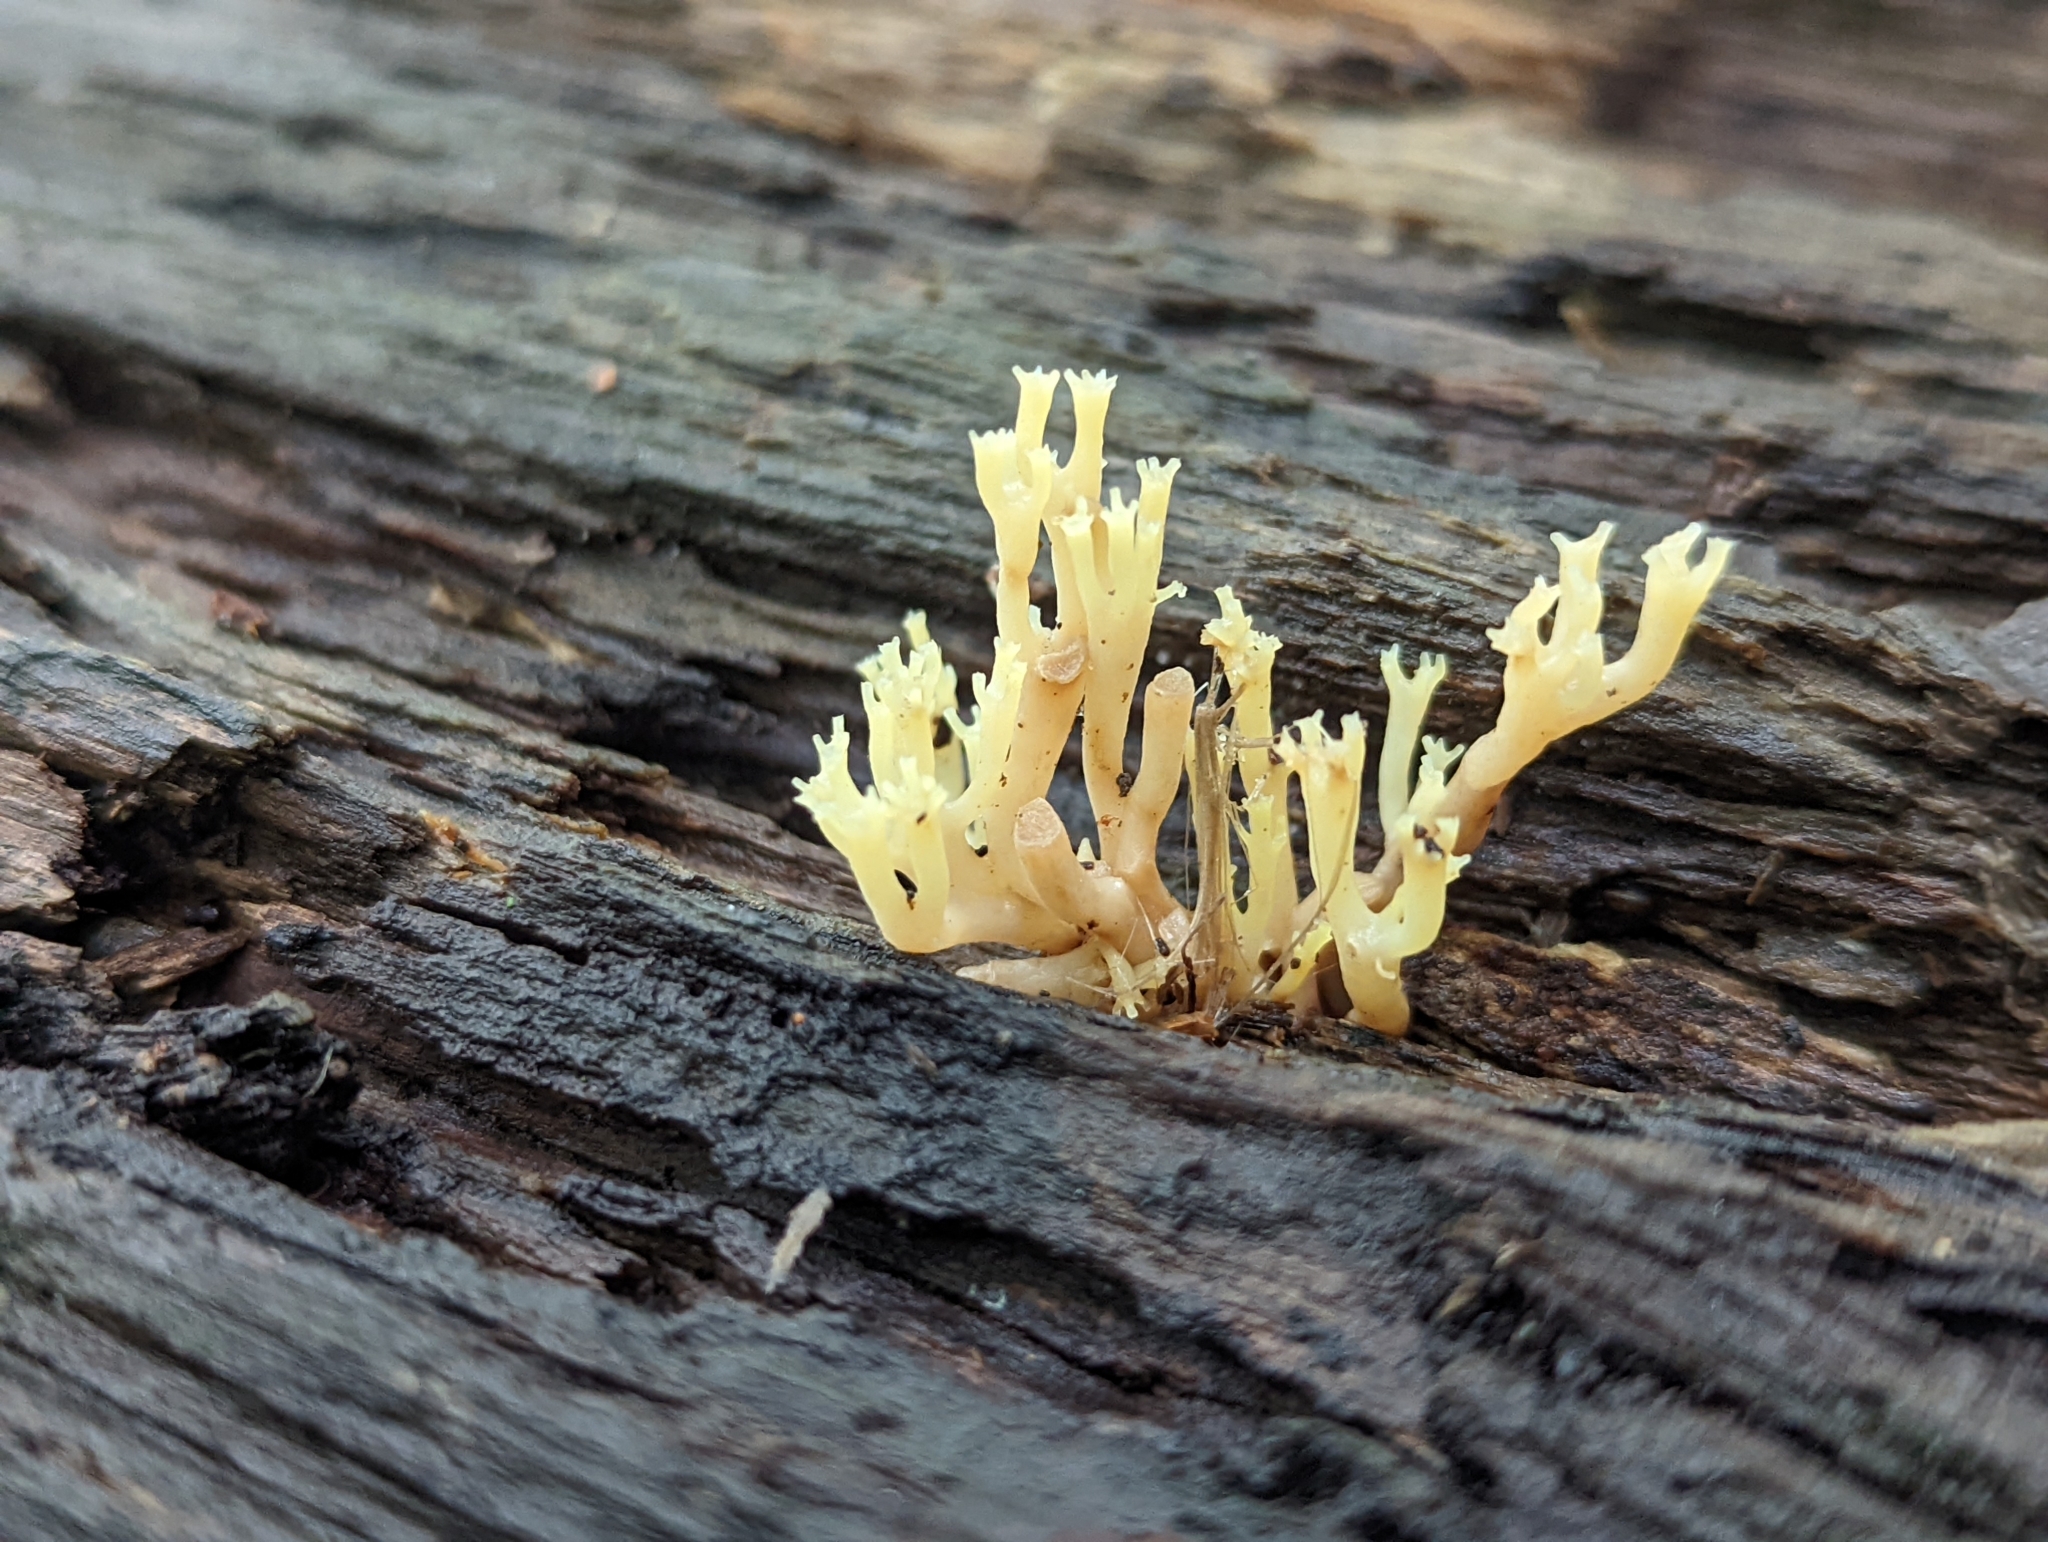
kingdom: Fungi
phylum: Basidiomycota
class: Agaricomycetes
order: Russulales
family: Auriscalpiaceae
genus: Artomyces
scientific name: Artomyces pyxidatus
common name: Crown-tipped coral fungus
